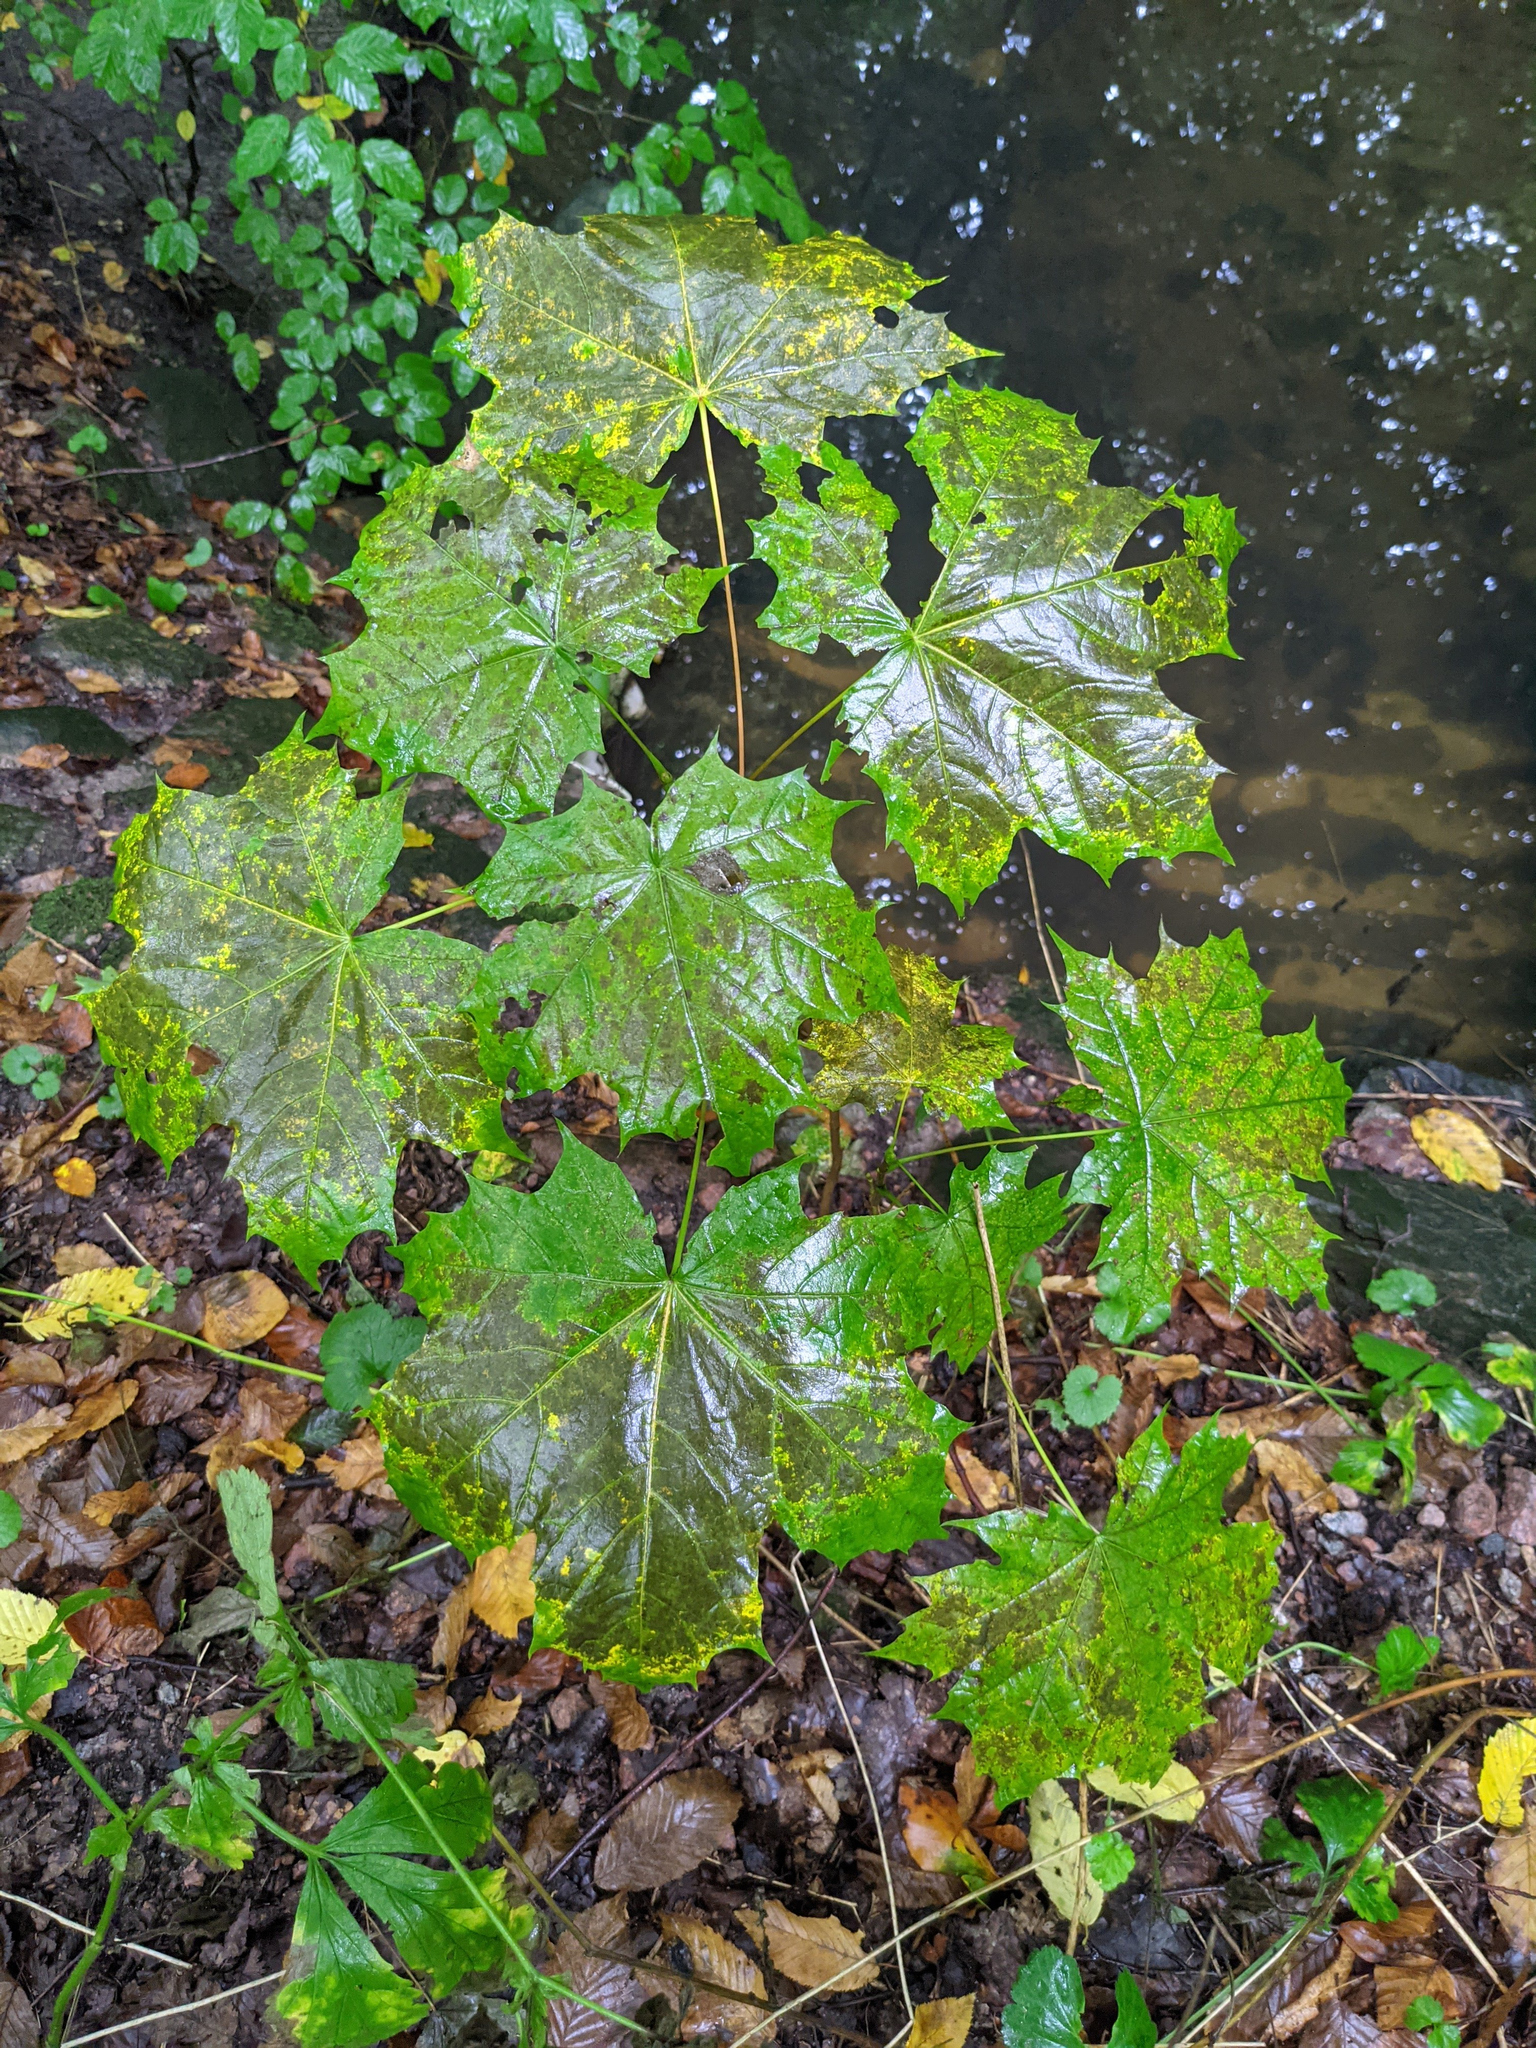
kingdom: Plantae
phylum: Tracheophyta
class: Magnoliopsida
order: Sapindales
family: Sapindaceae
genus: Acer
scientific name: Acer platanoides
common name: Norway maple
